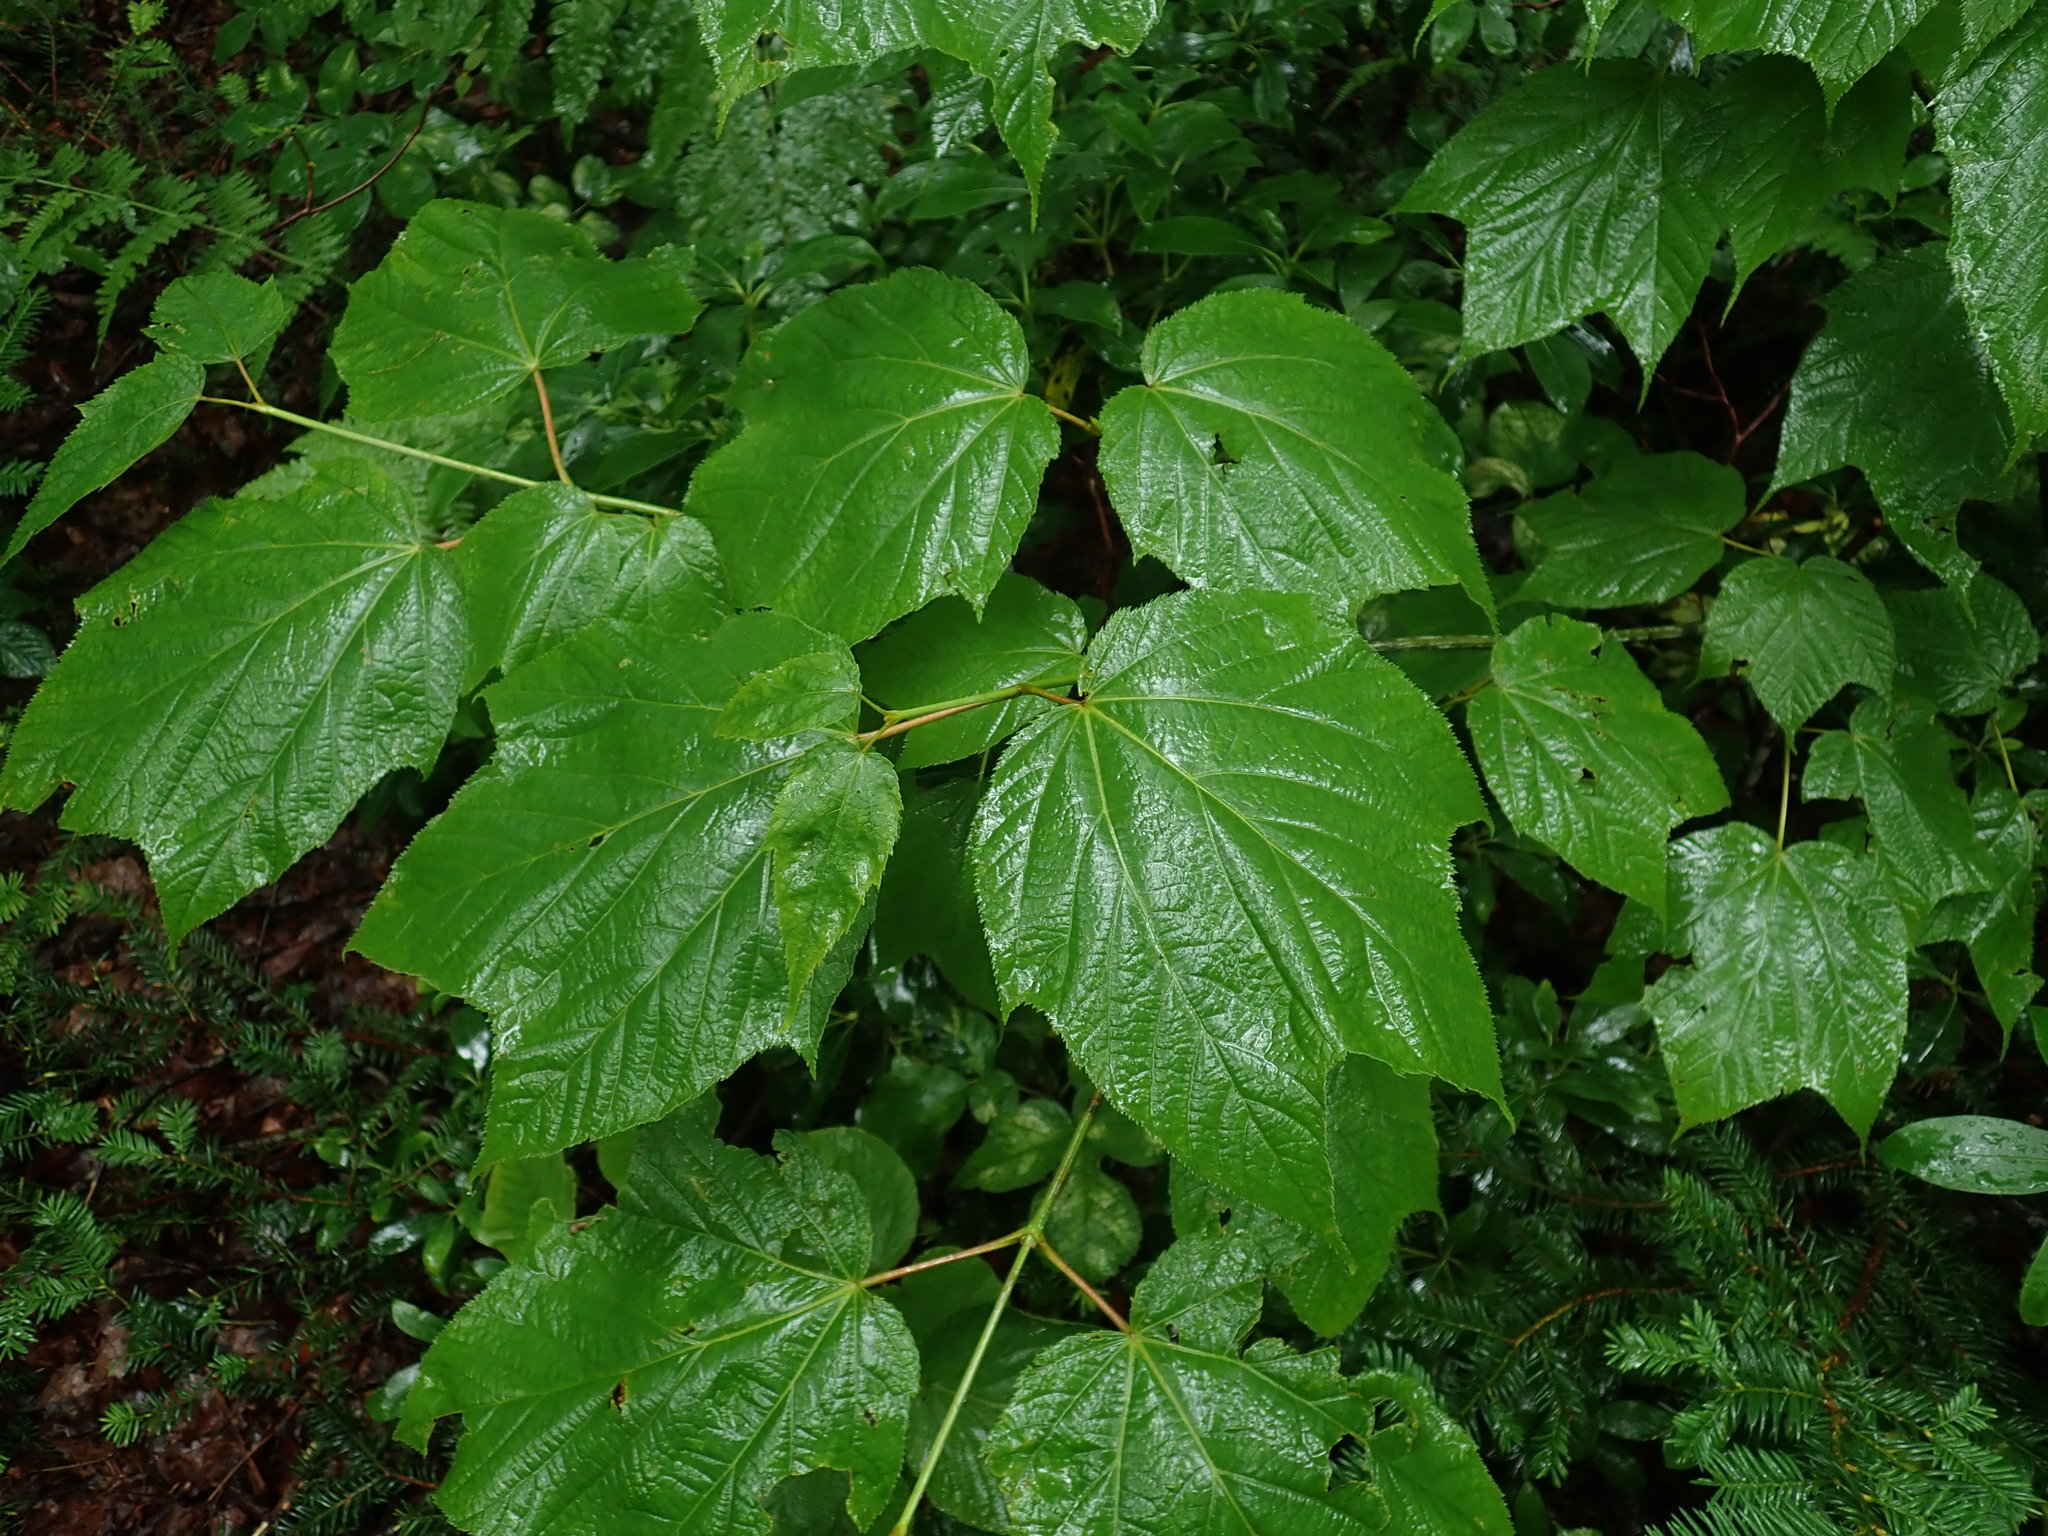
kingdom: Plantae
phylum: Tracheophyta
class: Magnoliopsida
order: Sapindales
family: Sapindaceae
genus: Acer
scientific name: Acer pensylvanicum
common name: Moosewood
